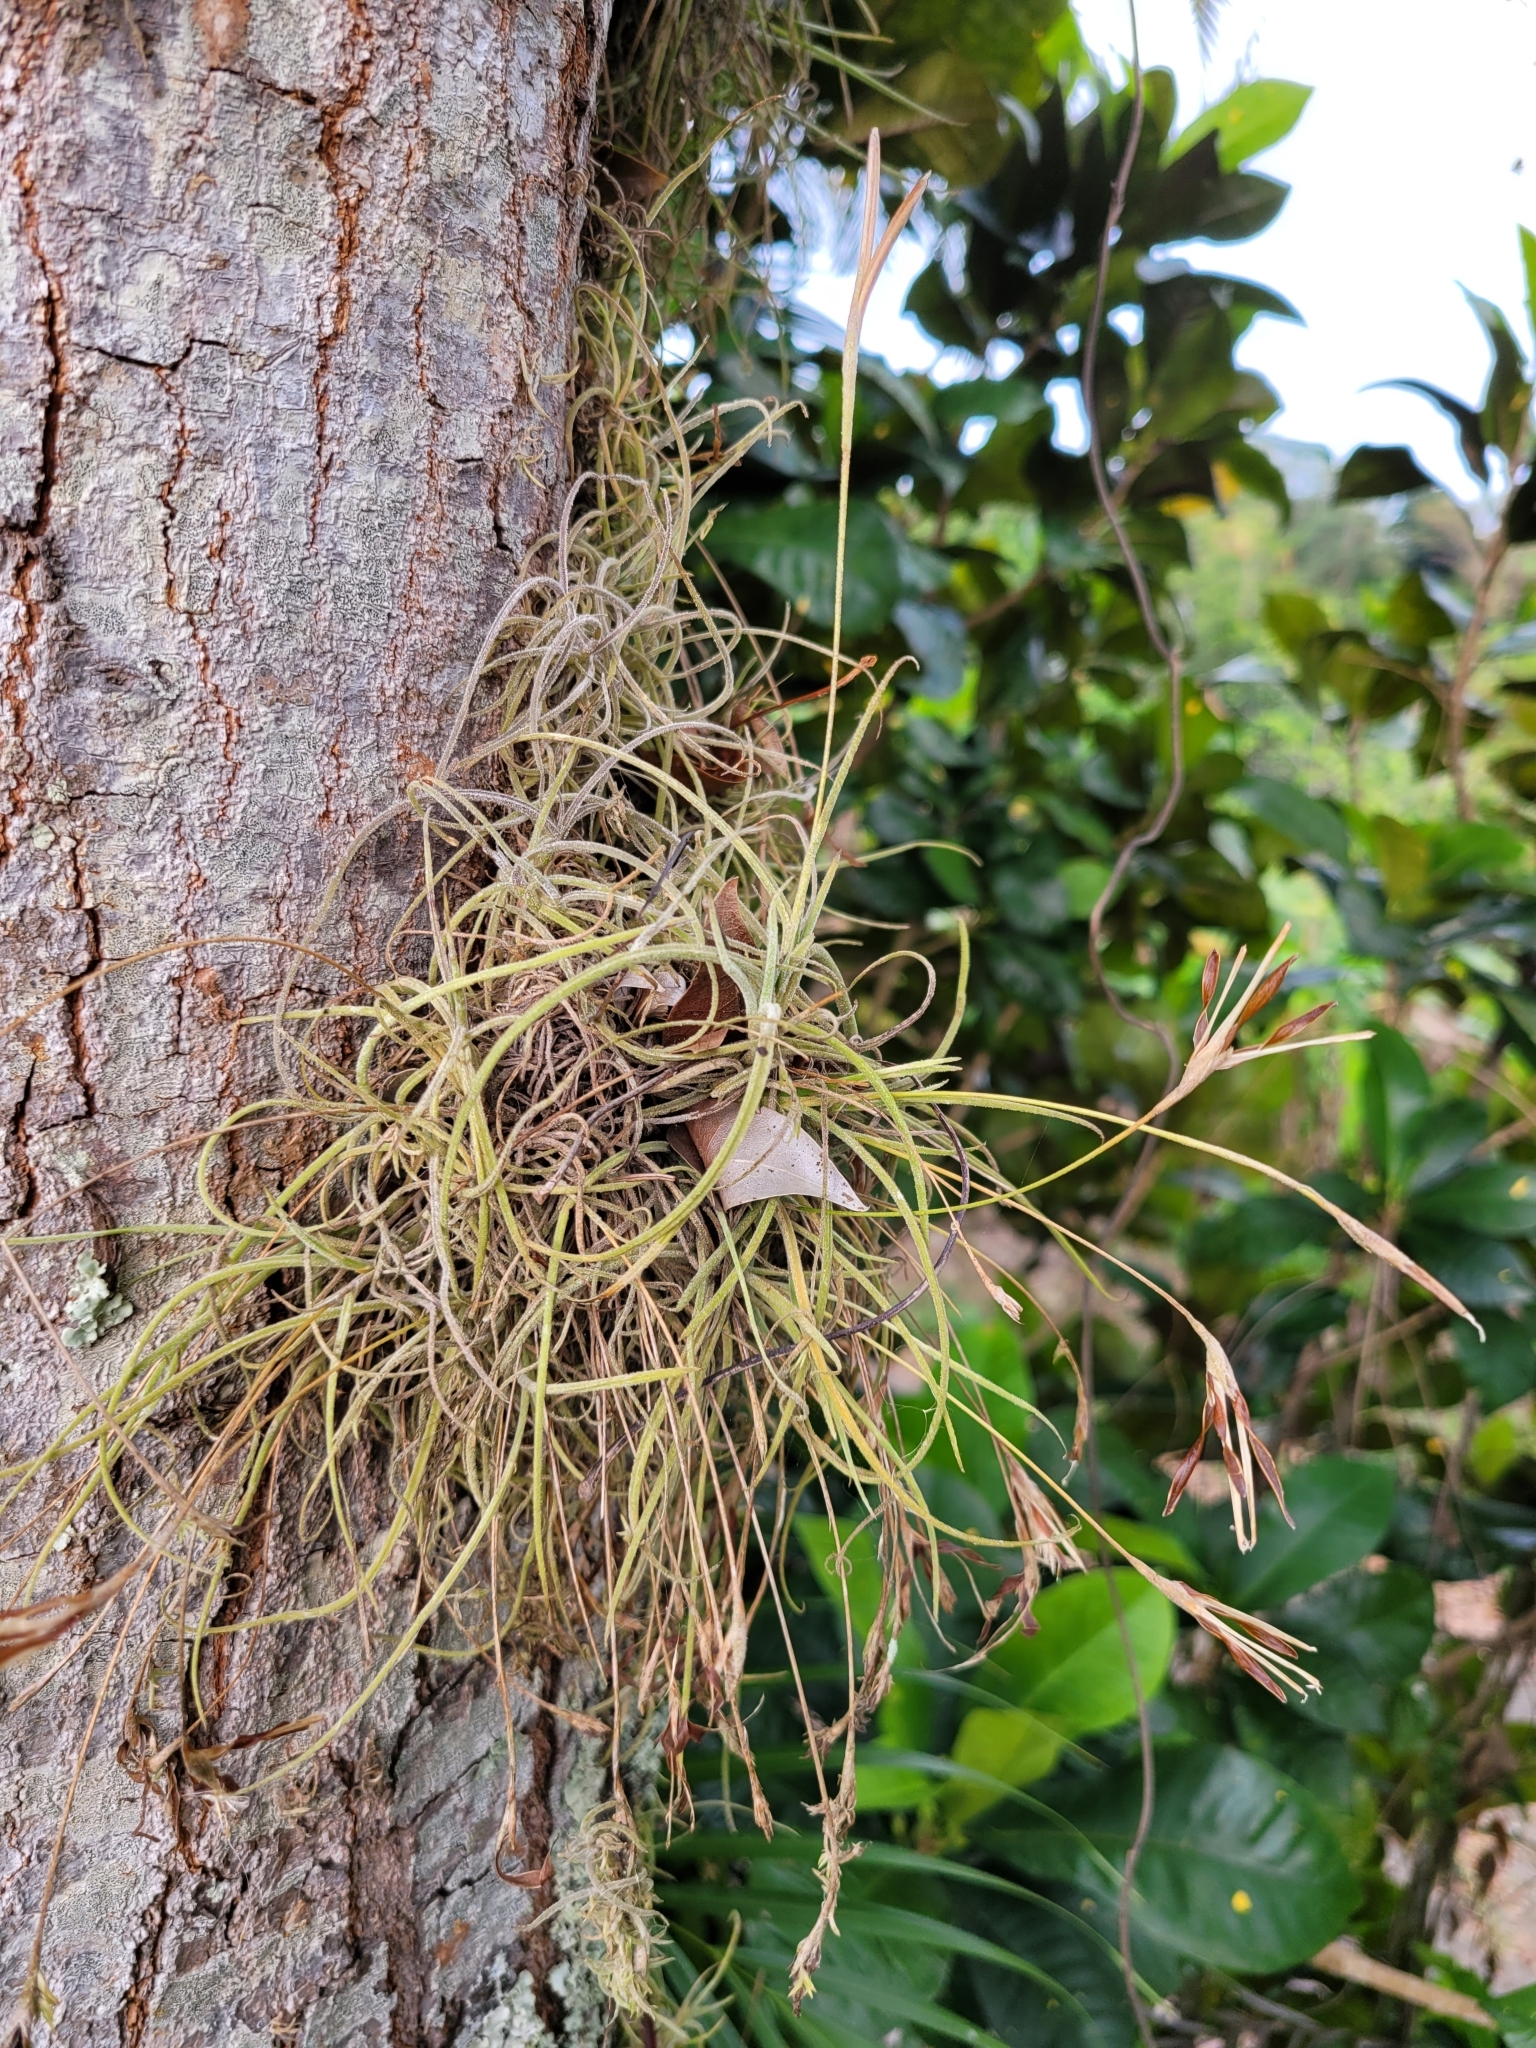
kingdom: Plantae
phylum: Tracheophyta
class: Liliopsida
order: Poales
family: Bromeliaceae
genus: Tillandsia
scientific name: Tillandsia recurvata
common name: Small ballmoss
